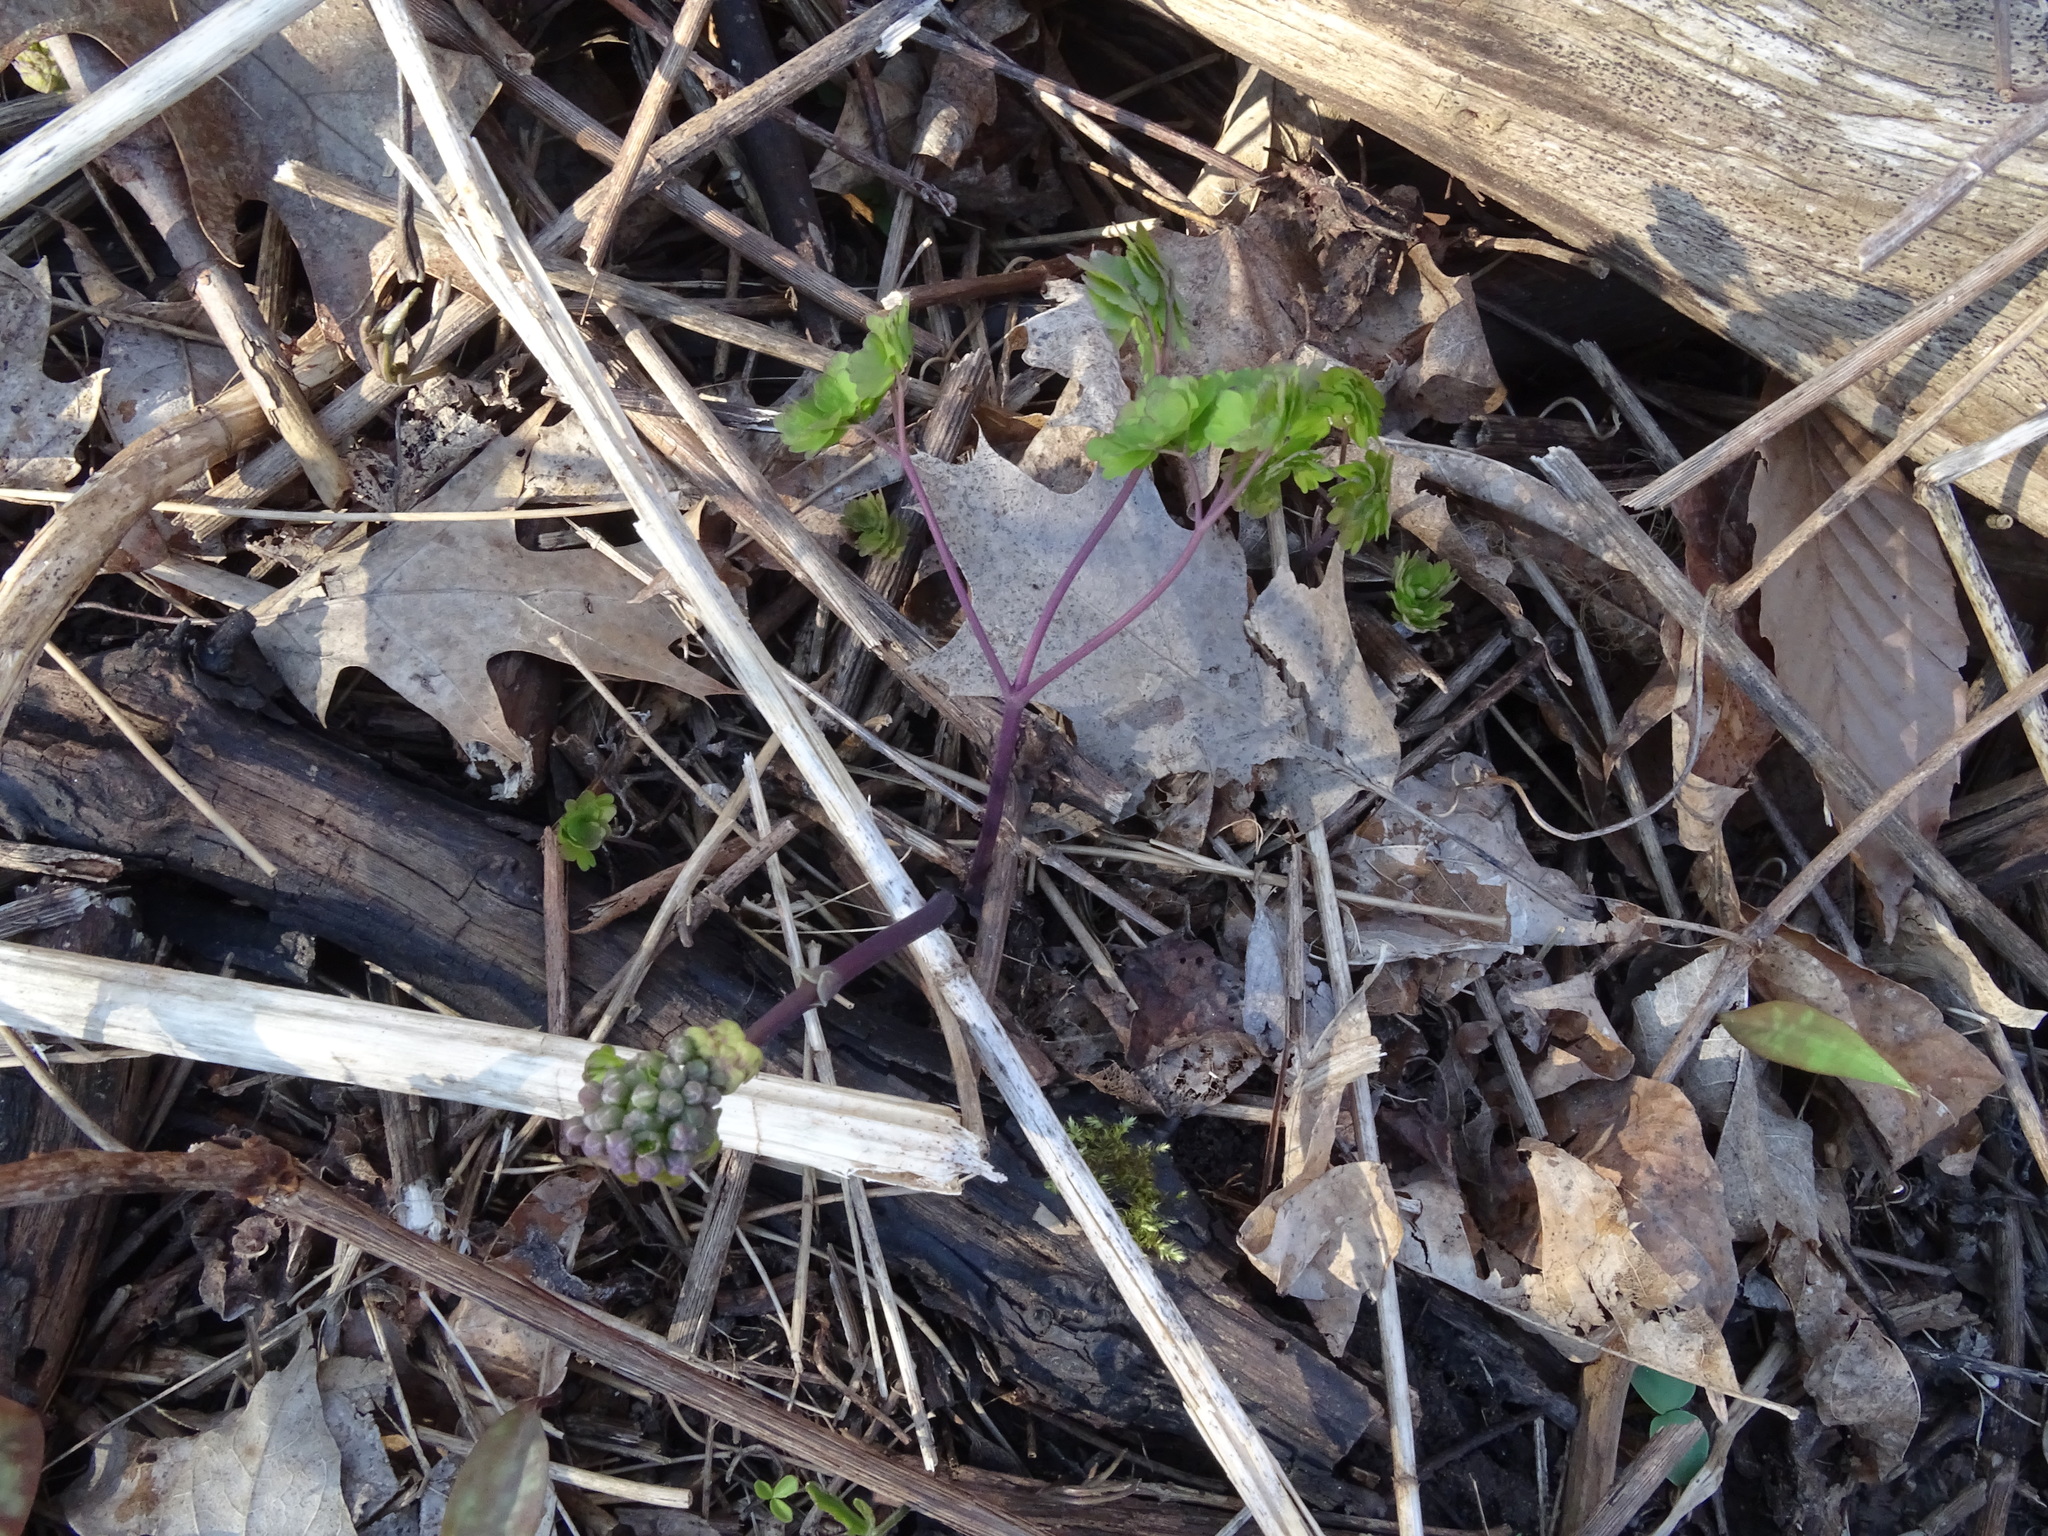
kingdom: Plantae
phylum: Tracheophyta
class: Magnoliopsida
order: Ranunculales
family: Ranunculaceae
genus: Thalictrum
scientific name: Thalictrum dioicum
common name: Early meadow-rue
